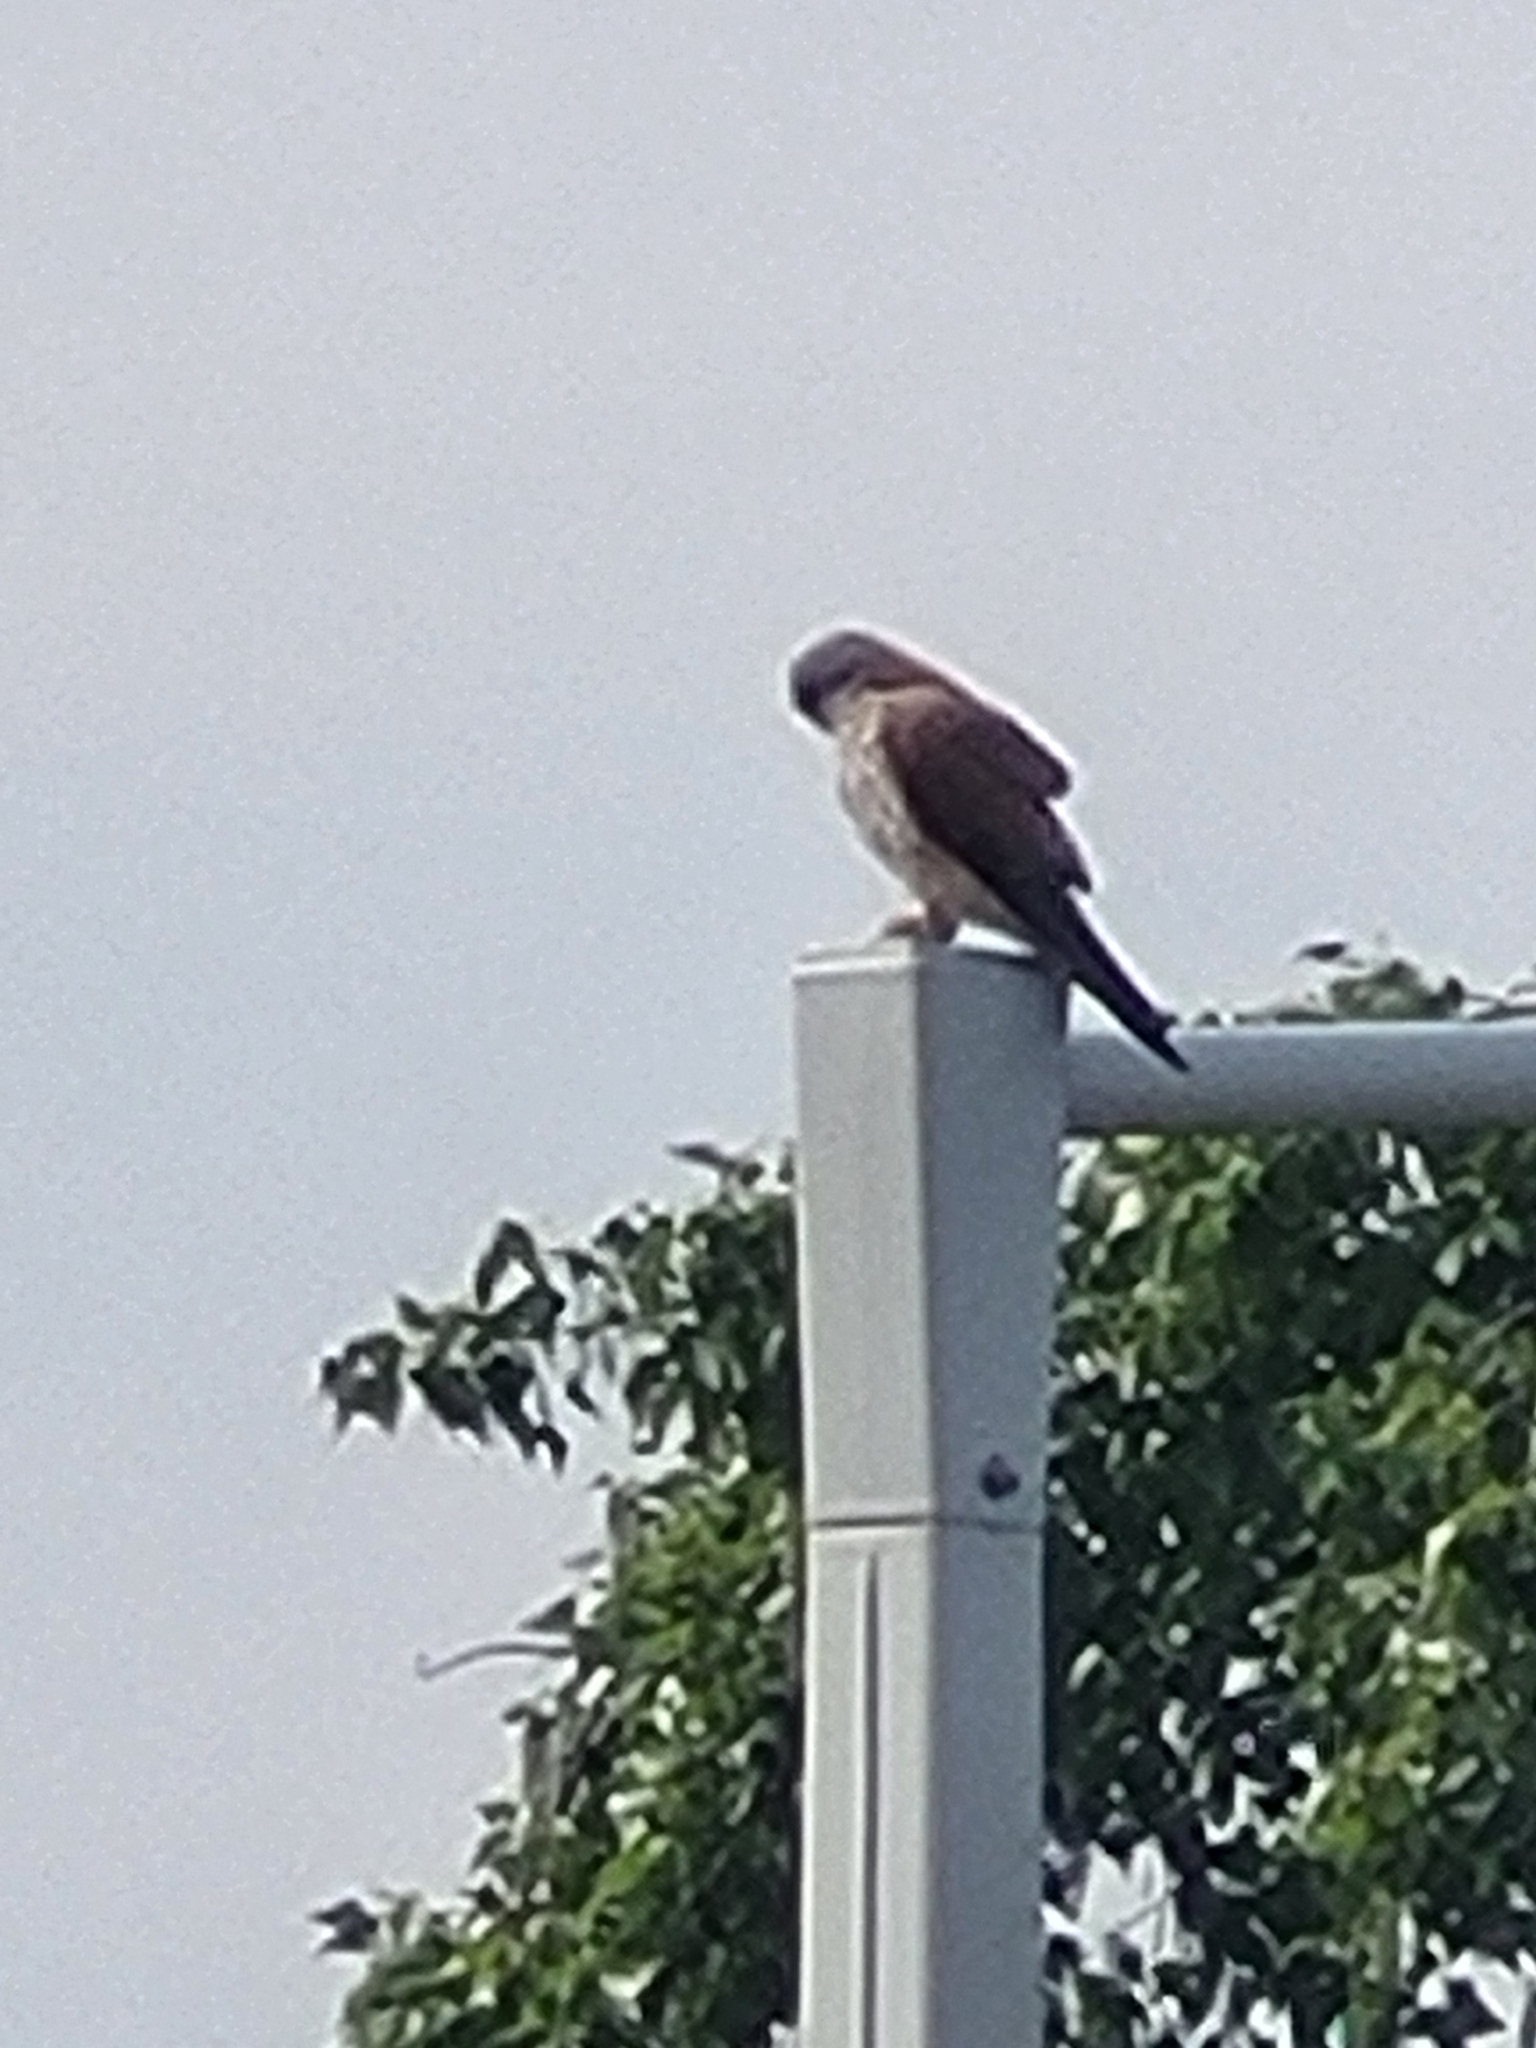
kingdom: Animalia
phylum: Chordata
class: Aves
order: Falconiformes
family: Falconidae
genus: Falco
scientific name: Falco tinnunculus
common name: Common kestrel
